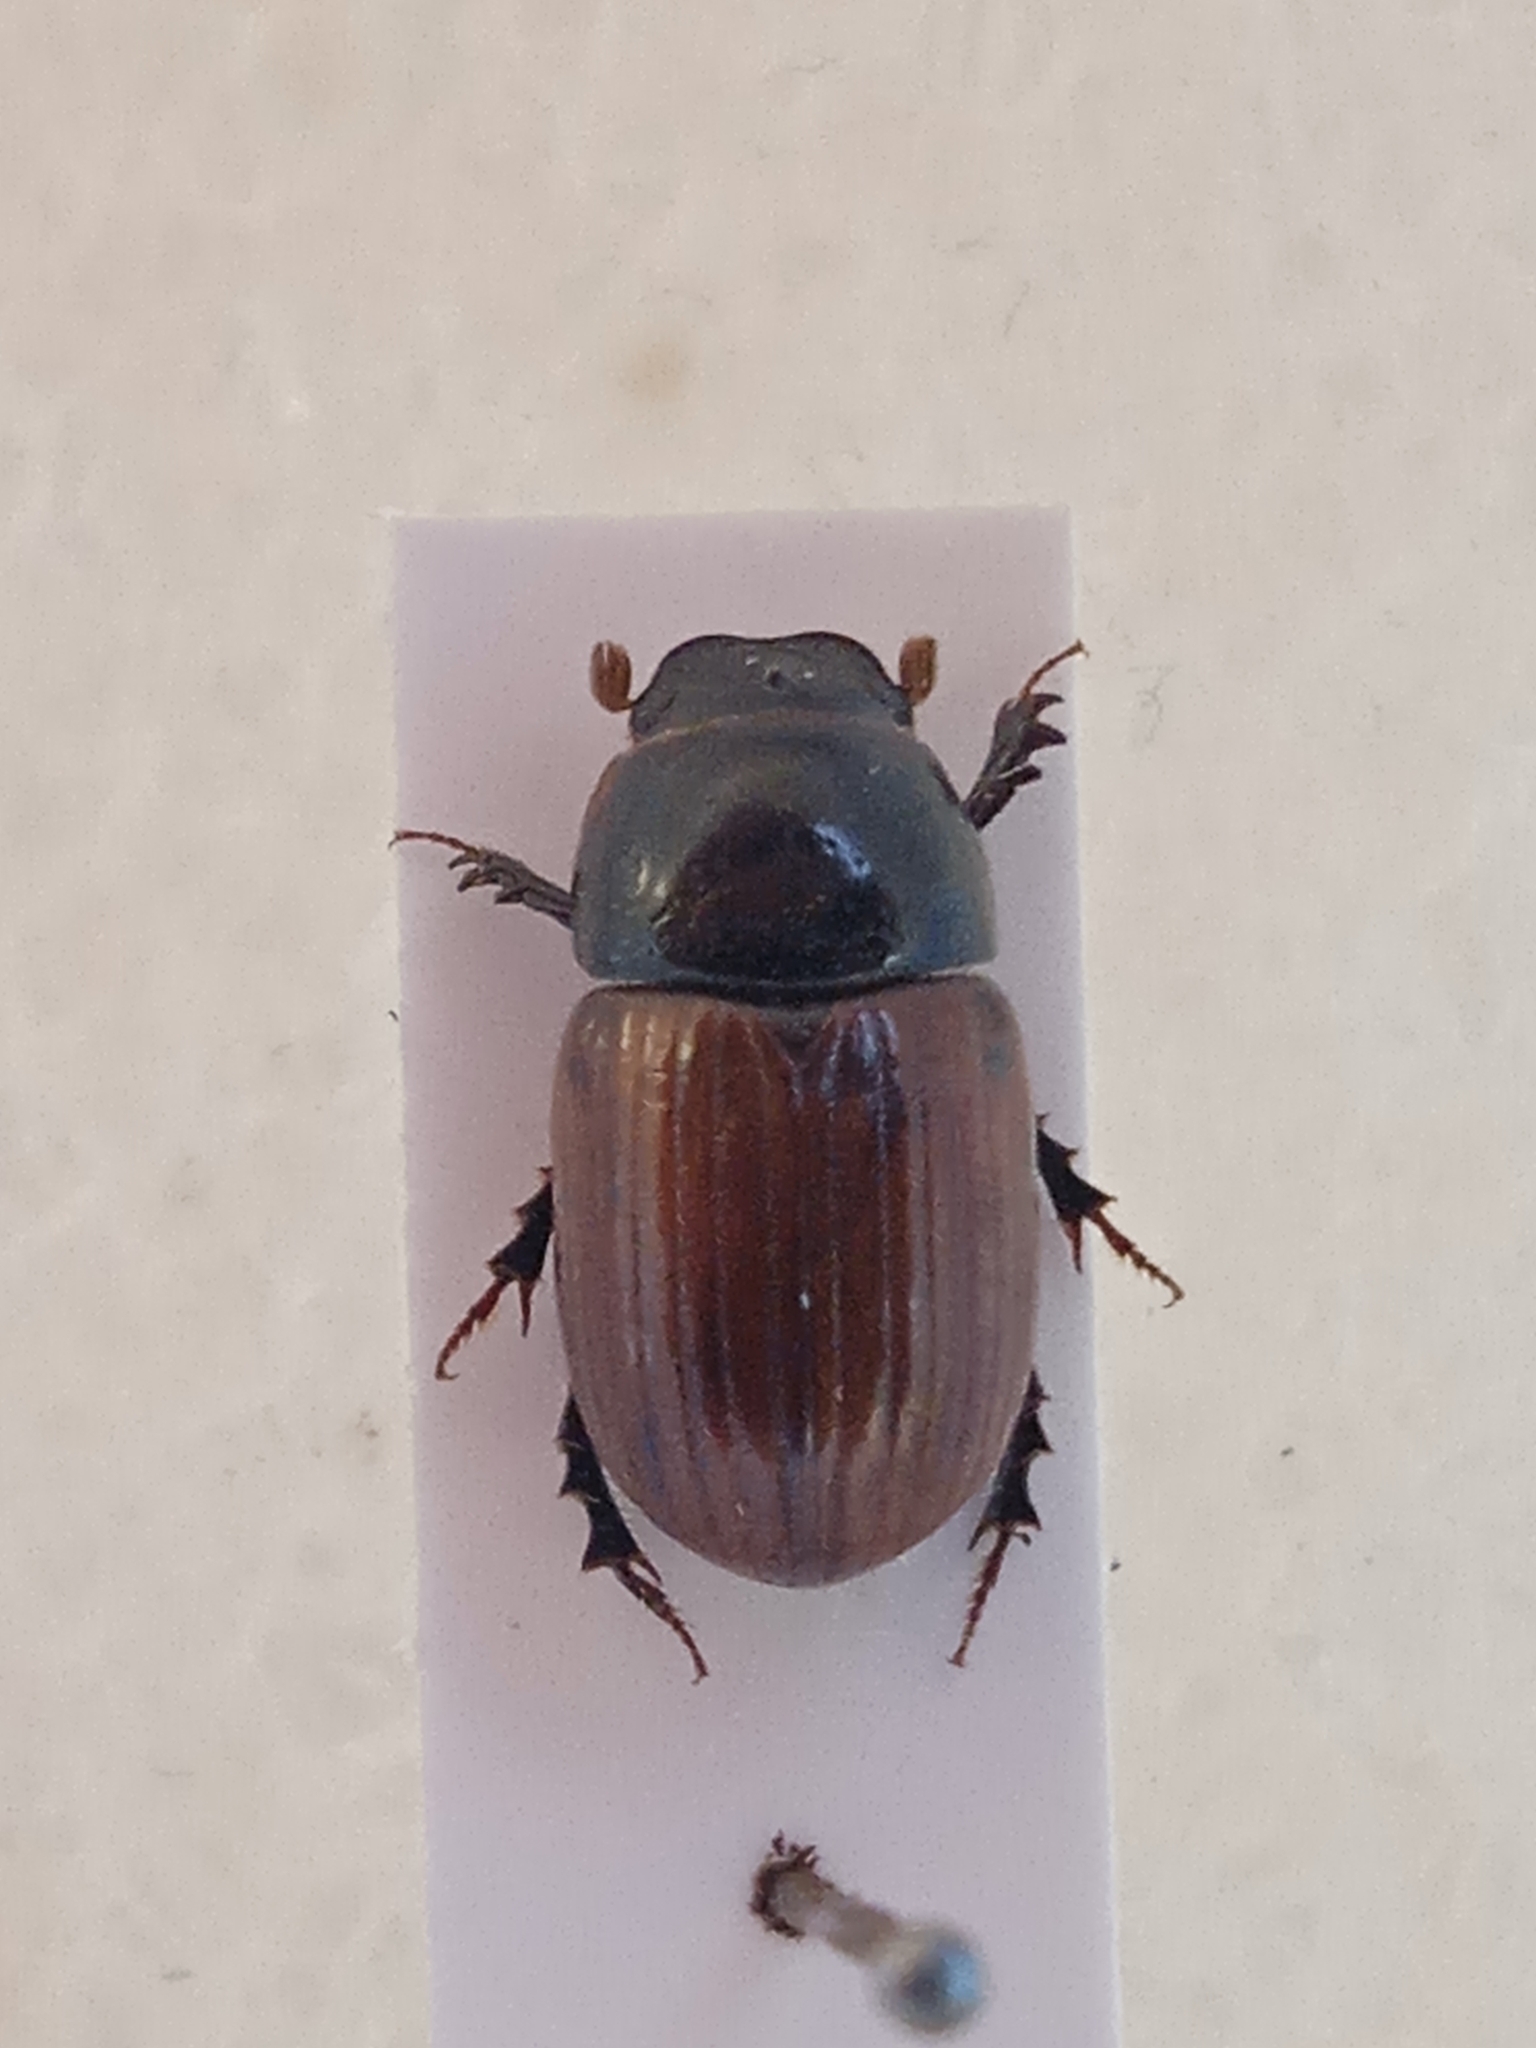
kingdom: Animalia
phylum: Arthropoda
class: Insecta
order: Coleoptera
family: Scarabaeidae
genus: Aphodius
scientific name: Aphodius fimetarius
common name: Common dung beetle
